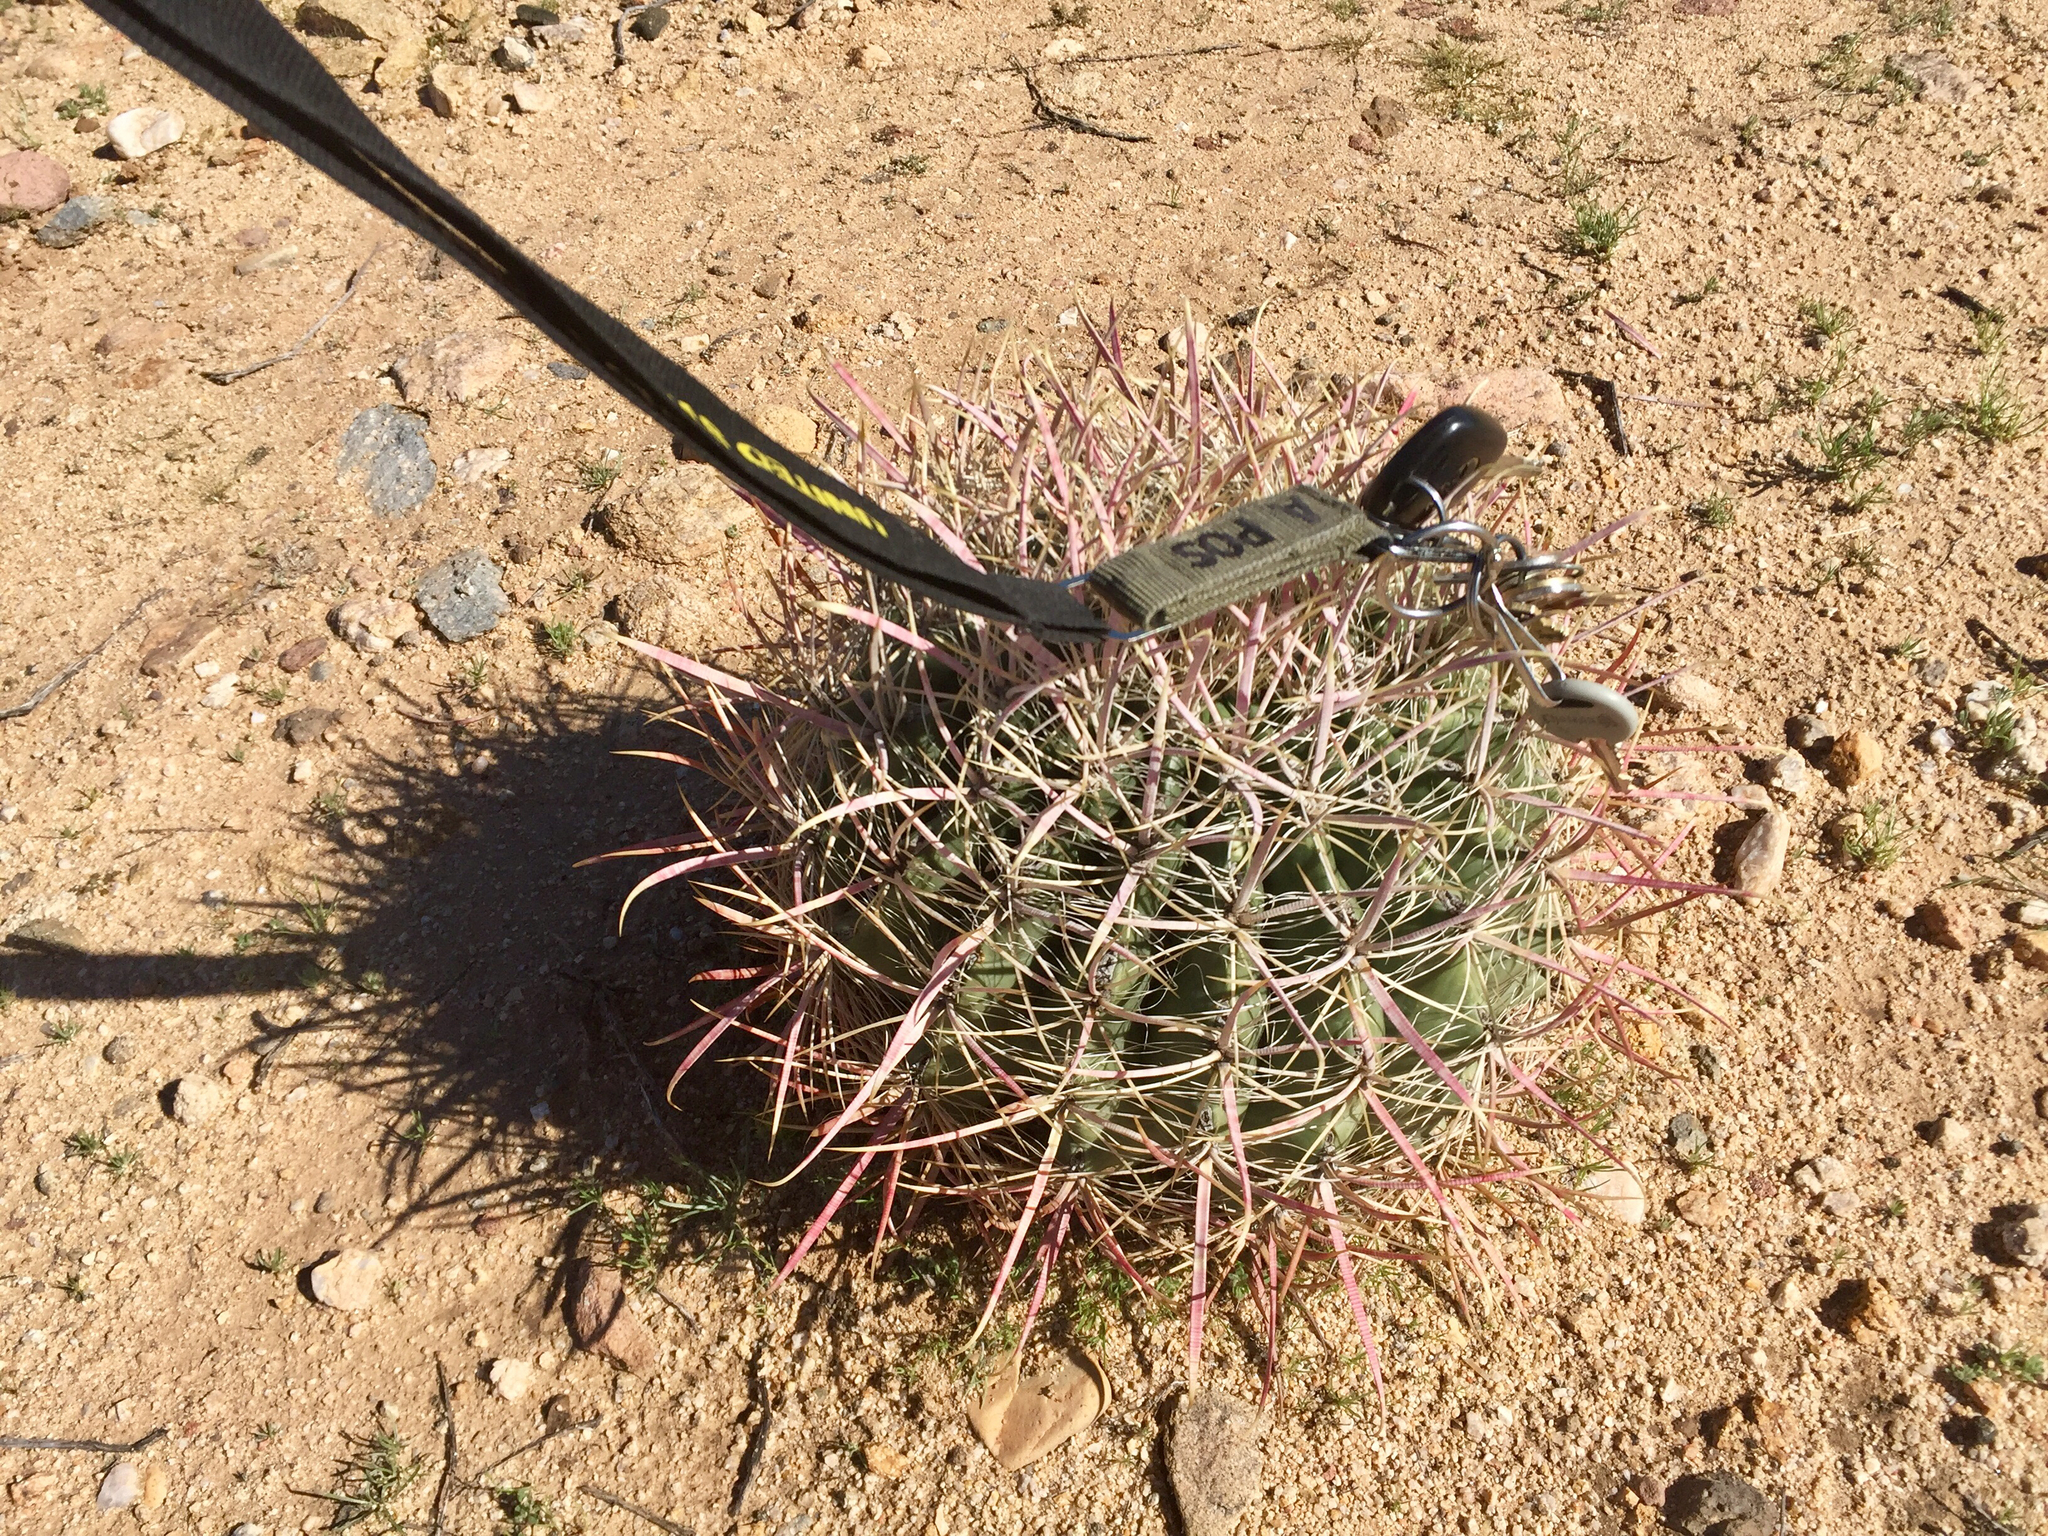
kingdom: Plantae
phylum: Tracheophyta
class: Magnoliopsida
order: Caryophyllales
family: Cactaceae
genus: Ferocactus
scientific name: Ferocactus cylindraceus
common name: California barrel cactus
